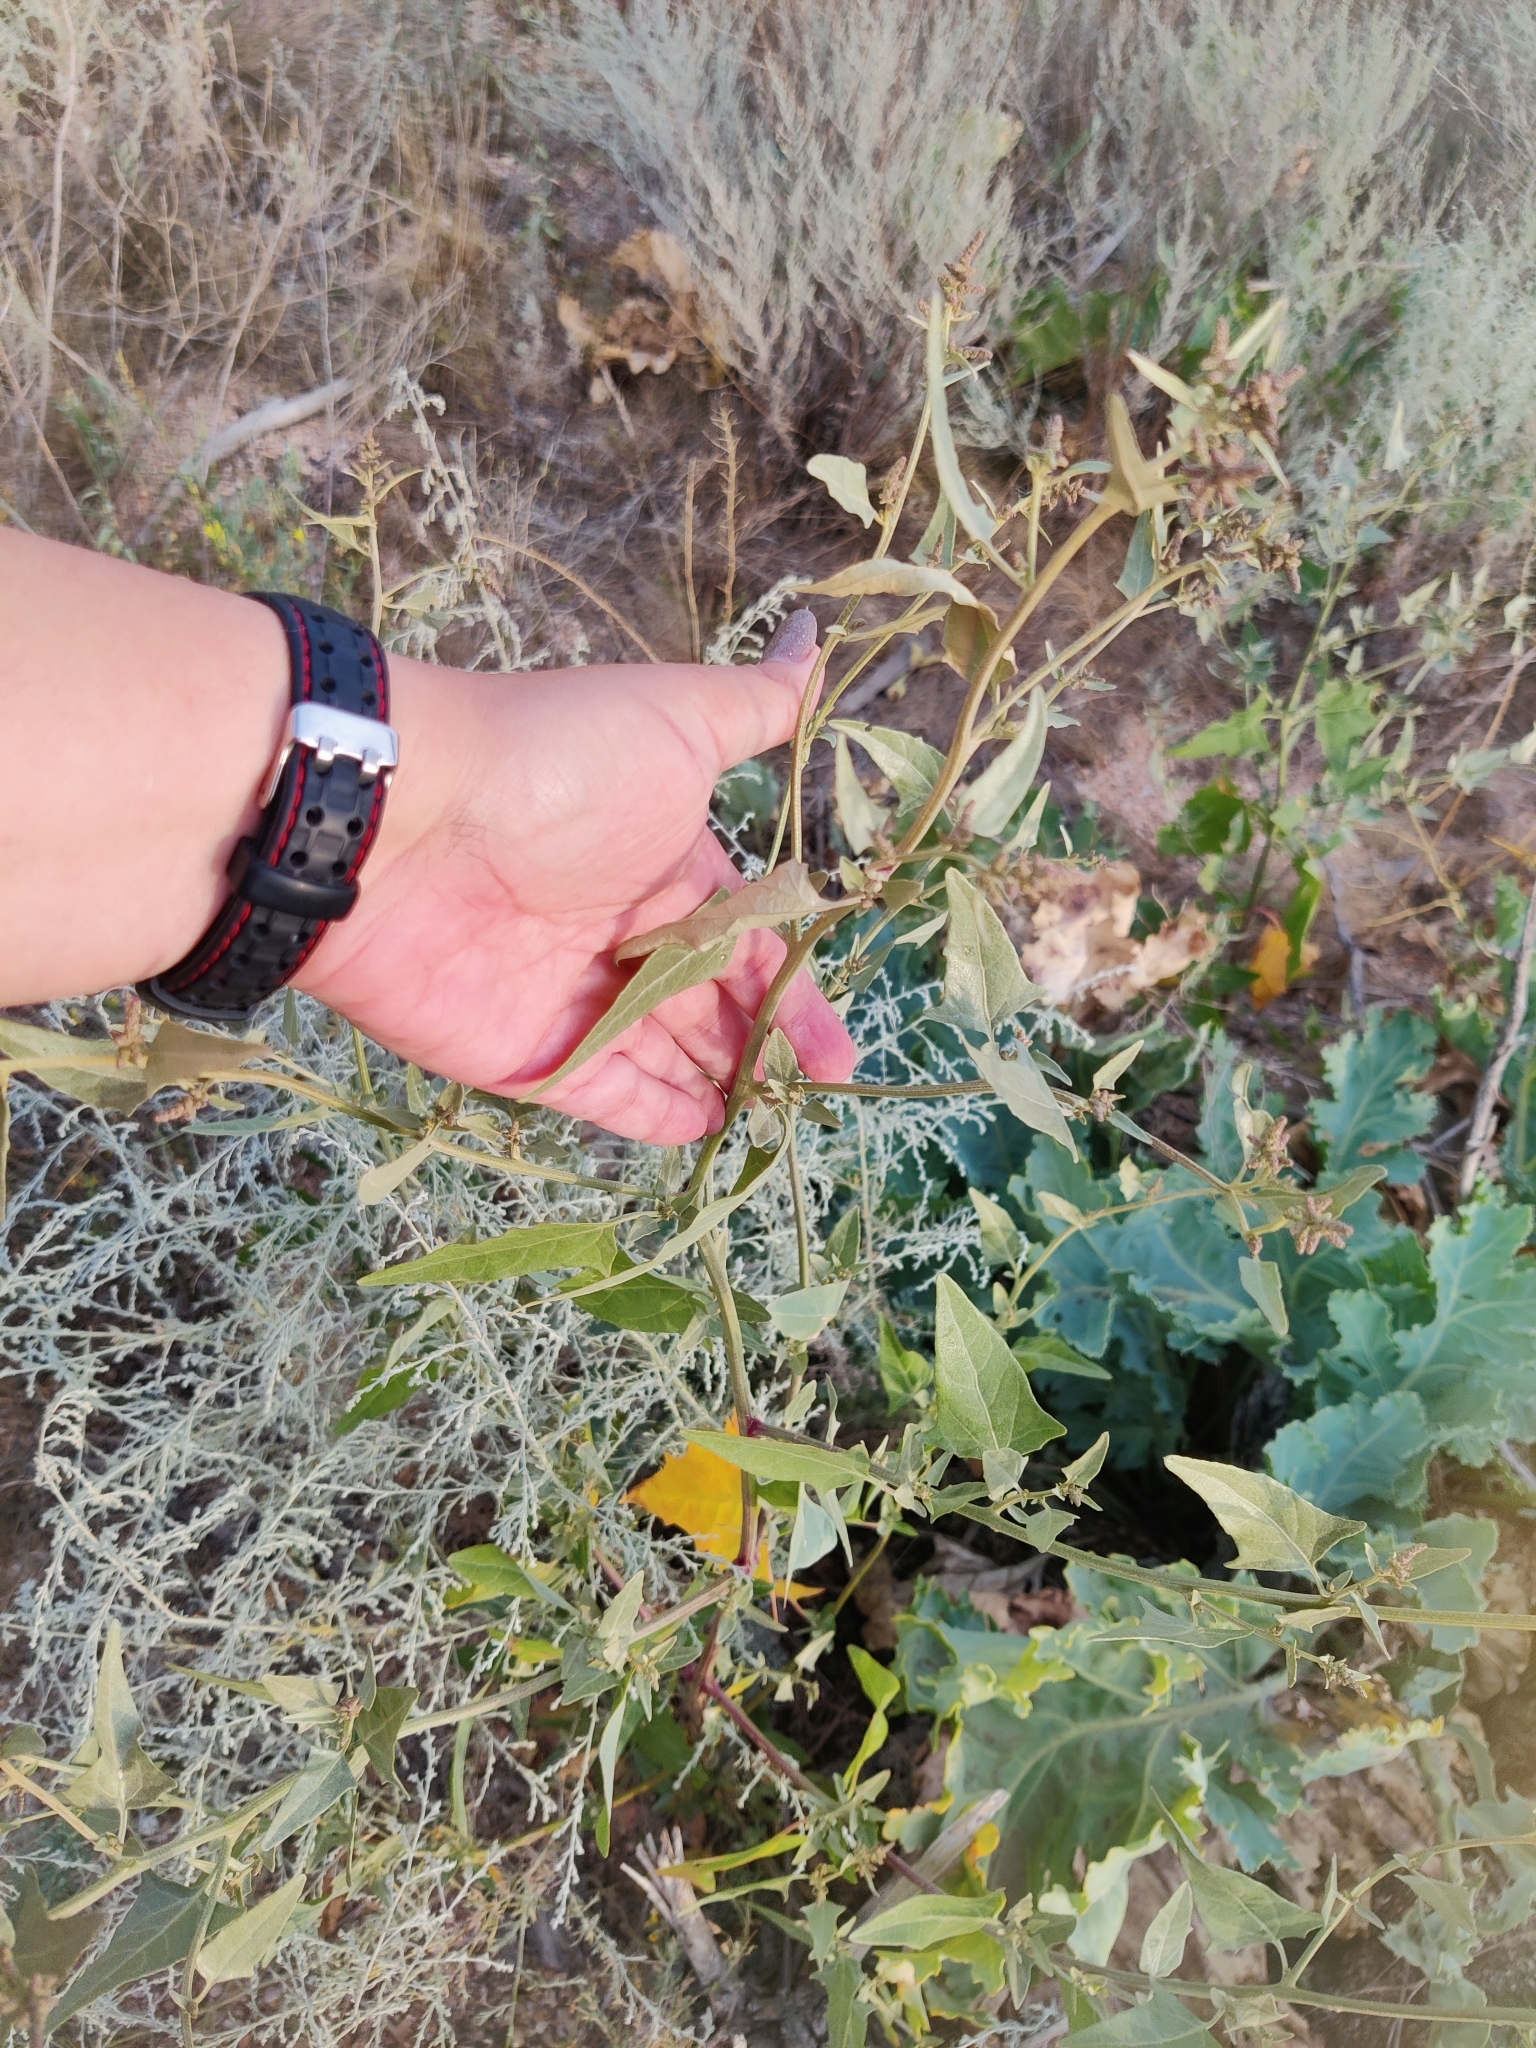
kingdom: Plantae
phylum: Tracheophyta
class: Magnoliopsida
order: Caryophyllales
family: Amaranthaceae
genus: Atriplex
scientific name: Atriplex prostrata
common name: Spear-leaved orache
